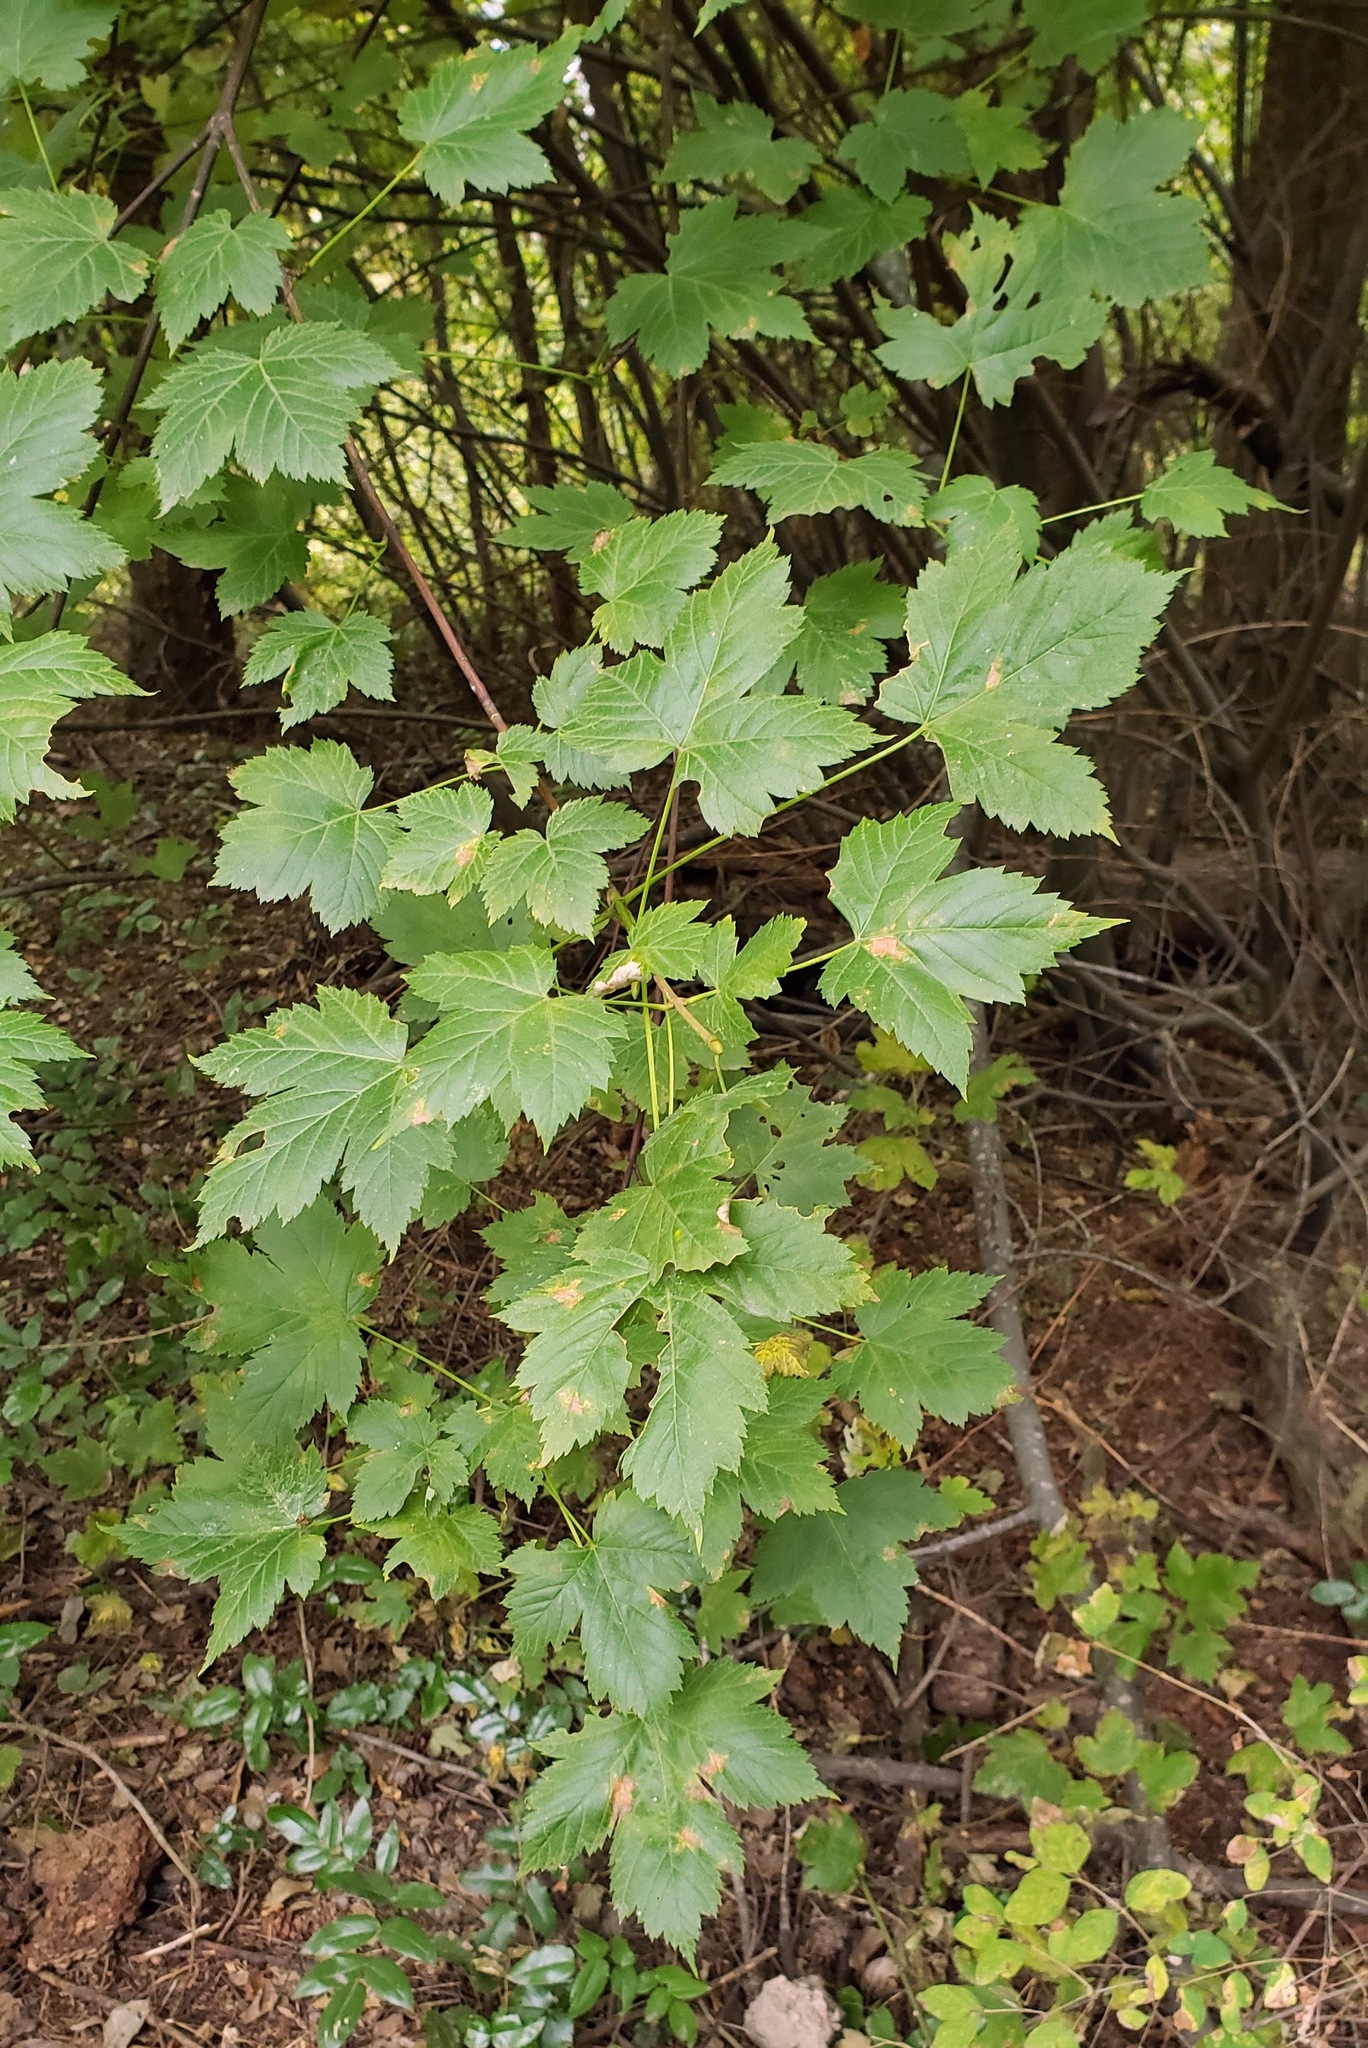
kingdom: Plantae
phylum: Tracheophyta
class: Magnoliopsida
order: Sapindales
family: Sapindaceae
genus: Acer
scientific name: Acer glabrum
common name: Rocky mountain maple
